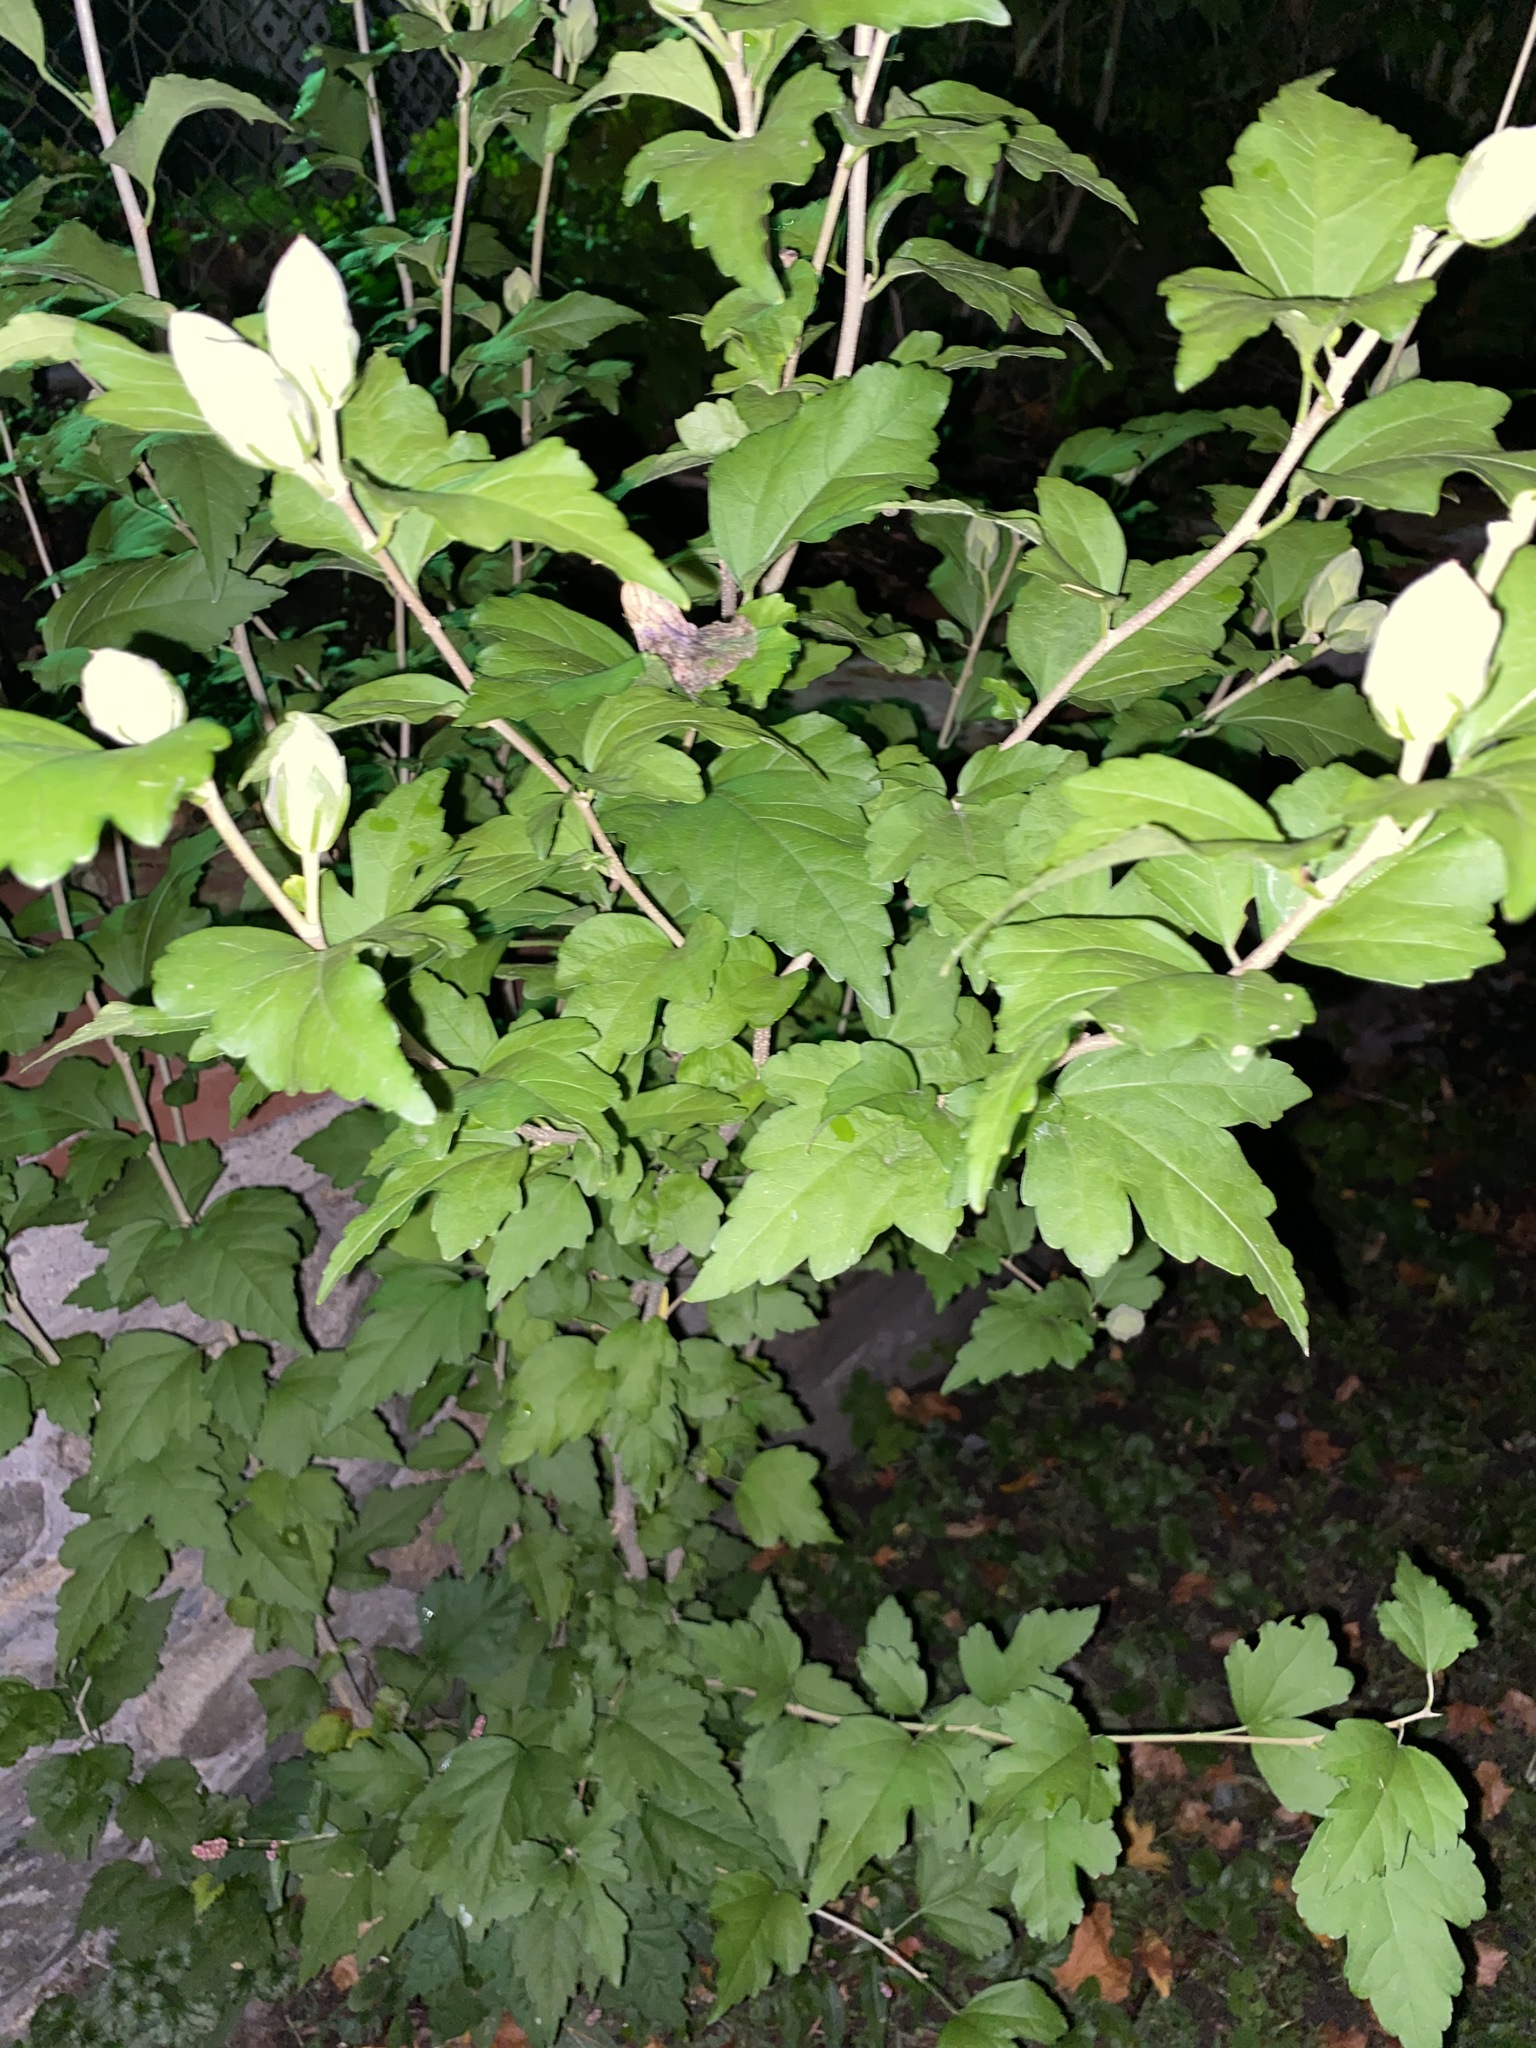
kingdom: Plantae
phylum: Tracheophyta
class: Magnoliopsida
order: Malvales
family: Malvaceae
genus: Hibiscus
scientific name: Hibiscus syriacus
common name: Syrian ketmia
